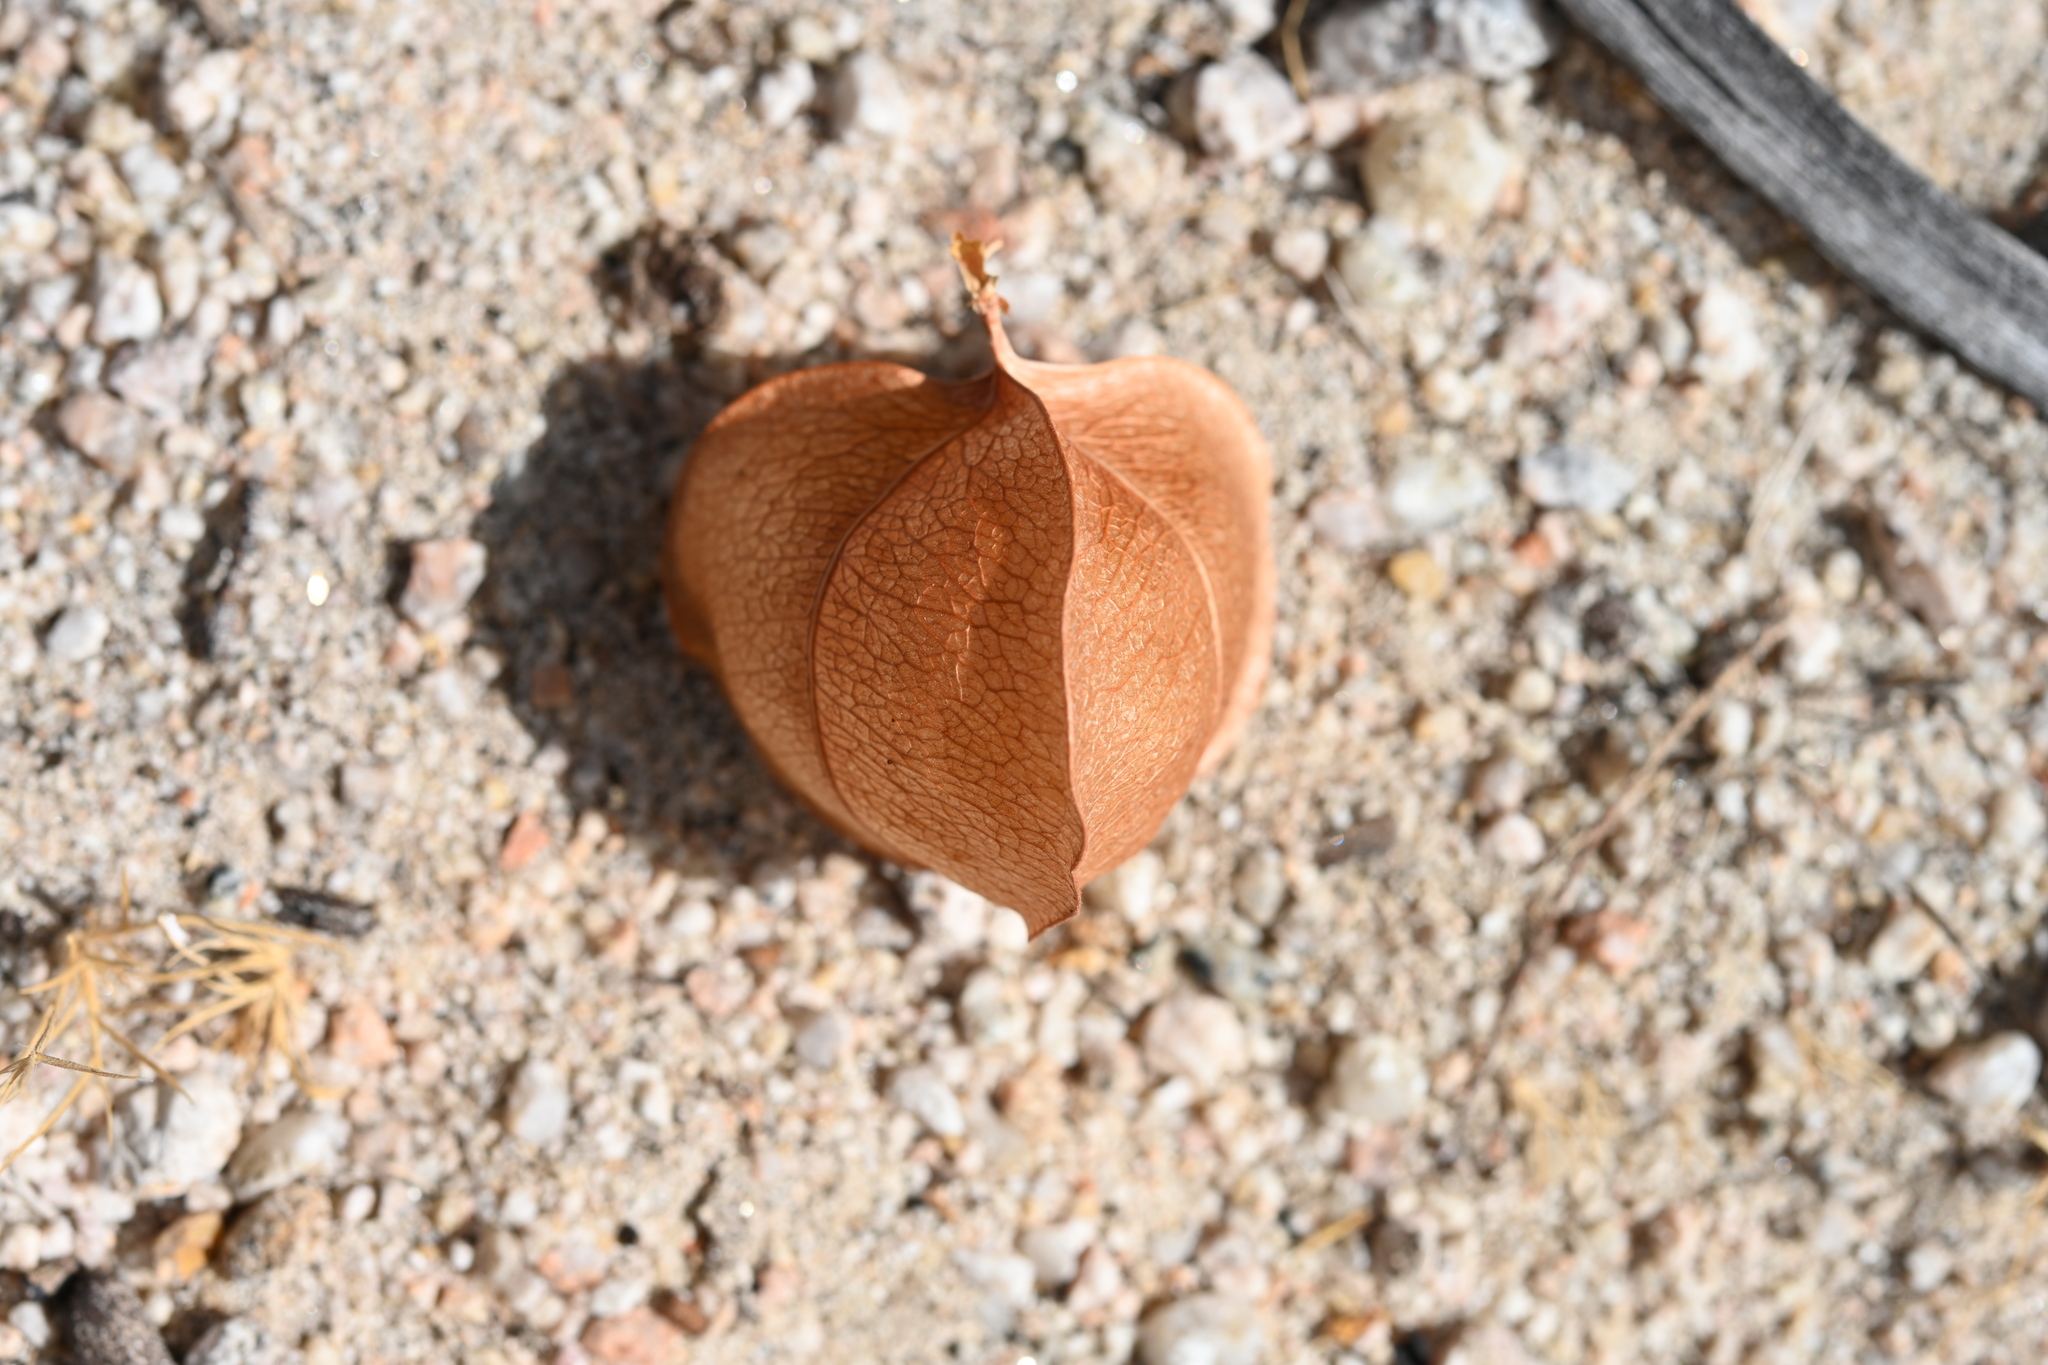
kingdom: Plantae
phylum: Tracheophyta
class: Magnoliopsida
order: Sapindales
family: Sapindaceae
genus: Cardiospermum
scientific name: Cardiospermum corindum
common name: Faux persil
